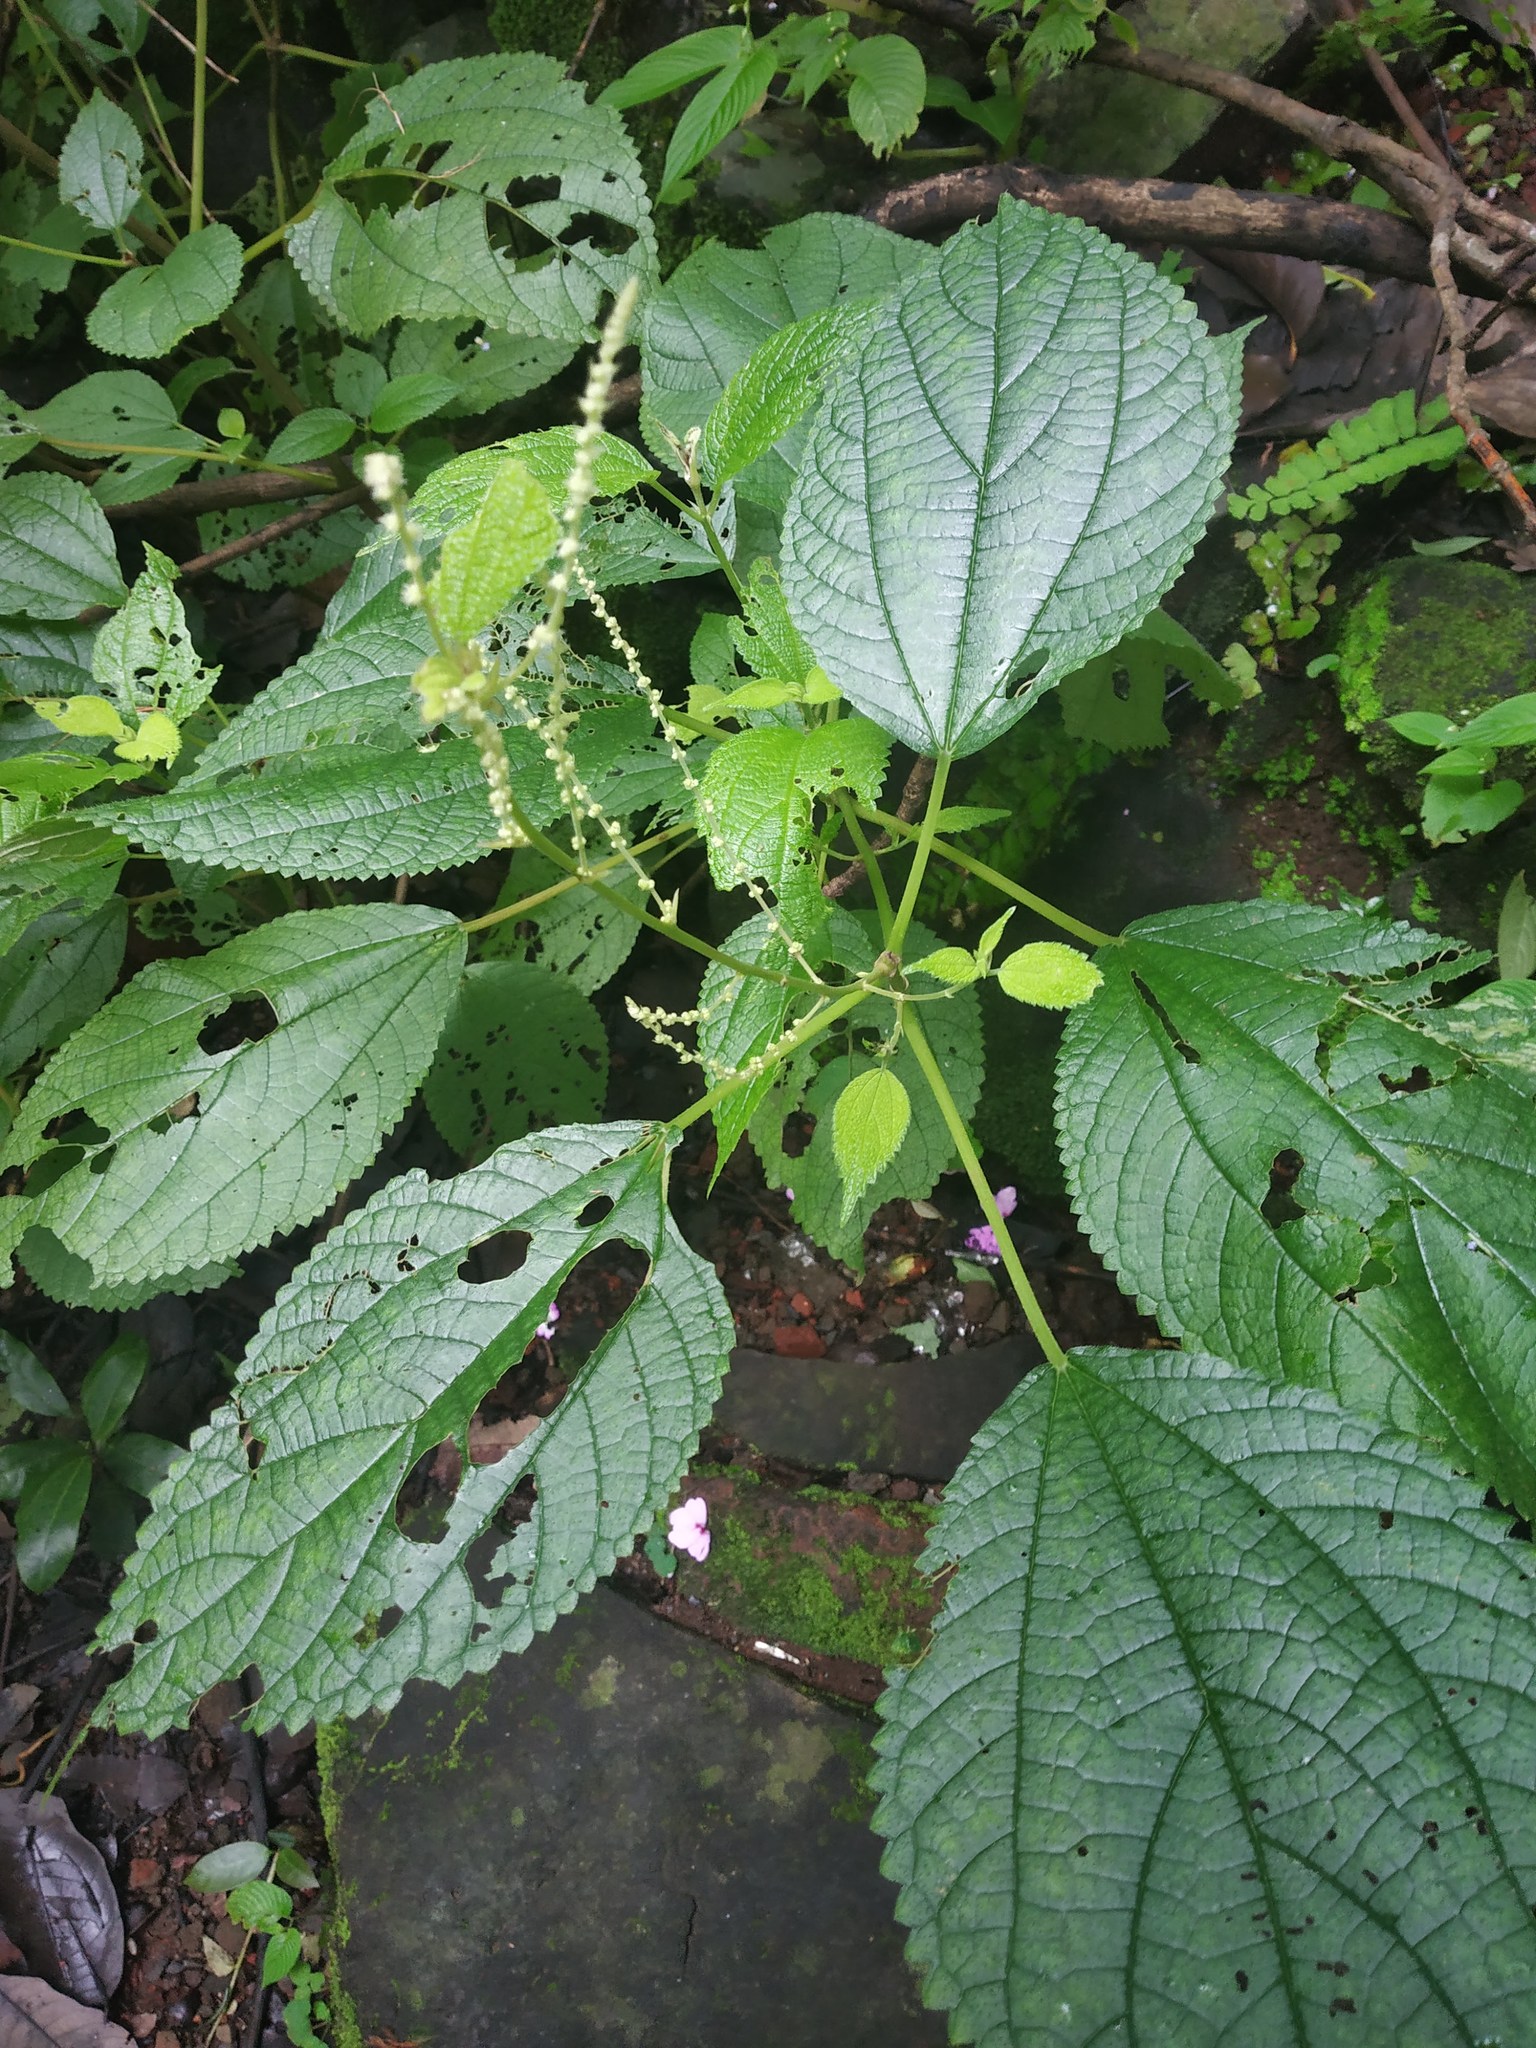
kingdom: Plantae
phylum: Tracheophyta
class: Magnoliopsida
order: Rosales
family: Urticaceae
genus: Boehmeria
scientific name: Boehmeria virgata
